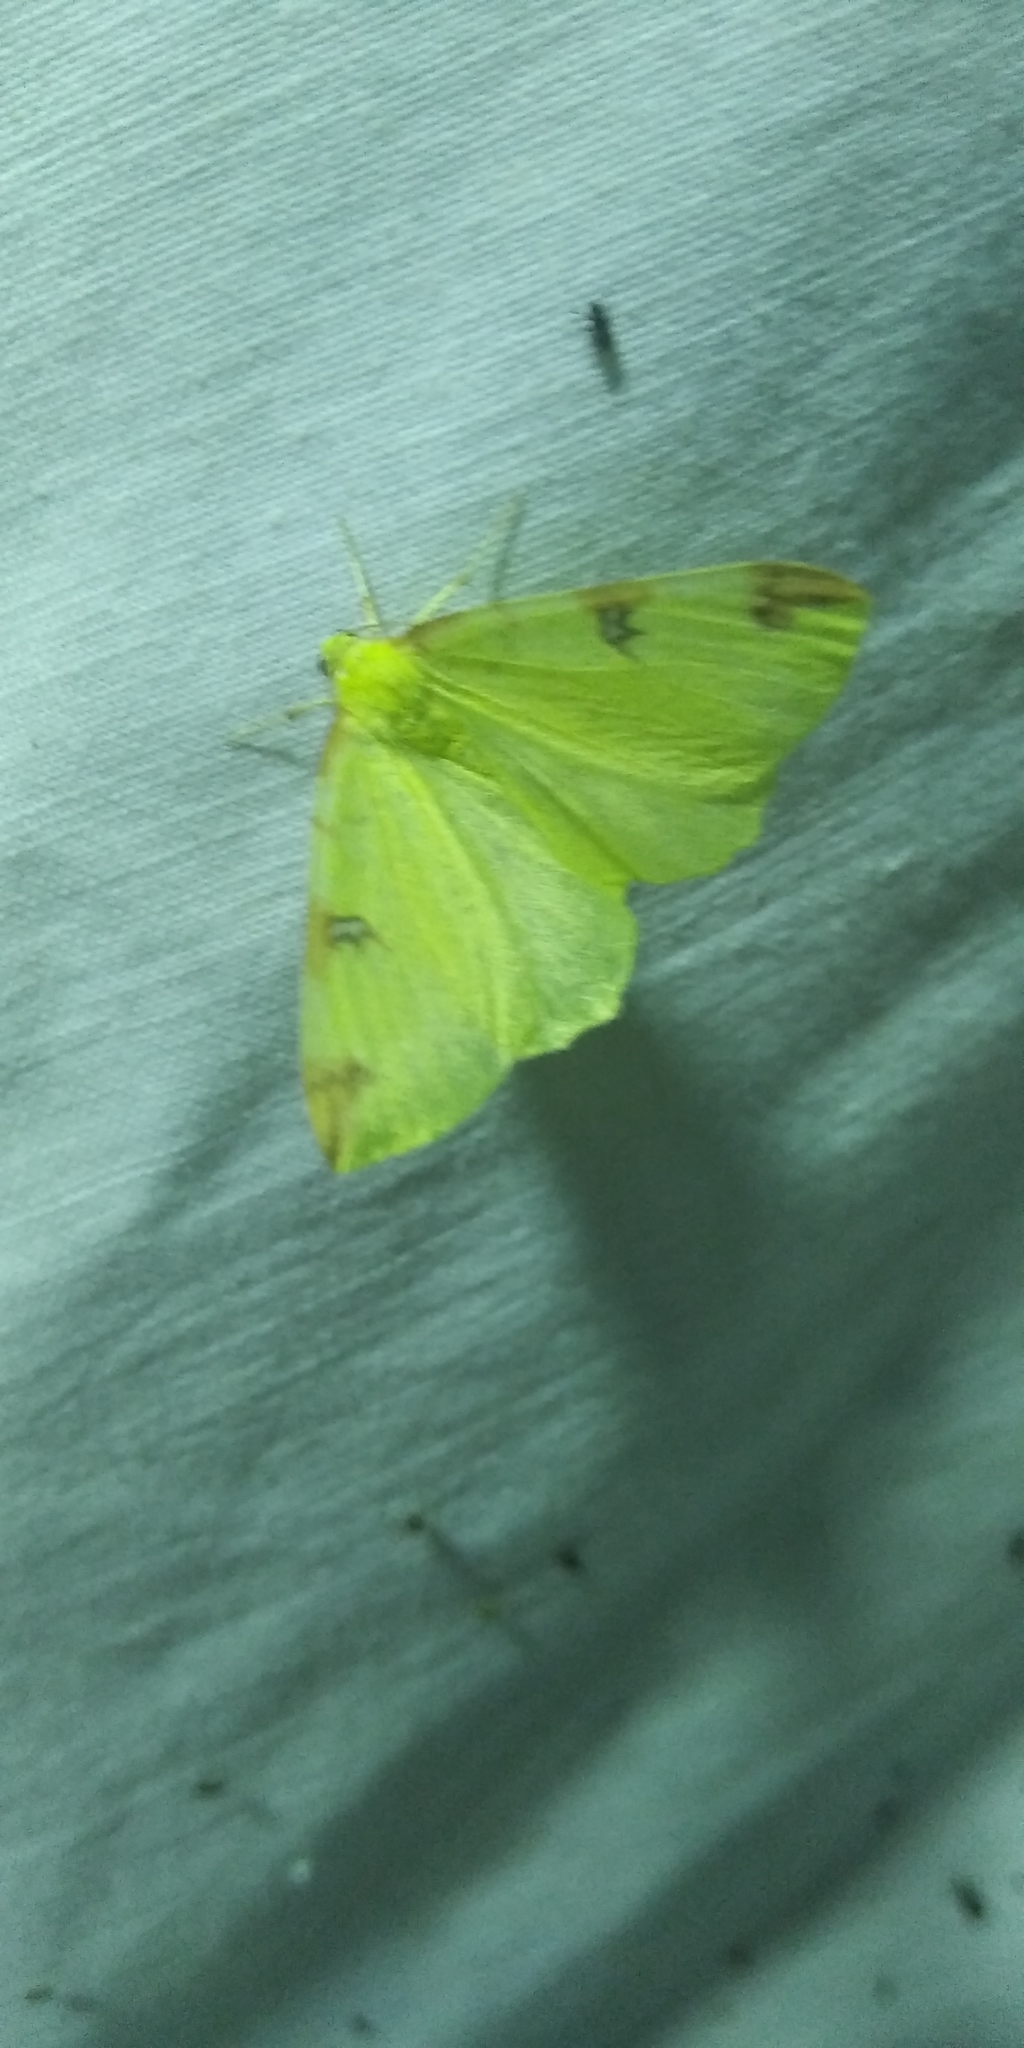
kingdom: Animalia
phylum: Arthropoda
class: Insecta
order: Lepidoptera
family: Geometridae
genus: Opisthograptis
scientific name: Opisthograptis luteolata
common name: Brimstone moth
